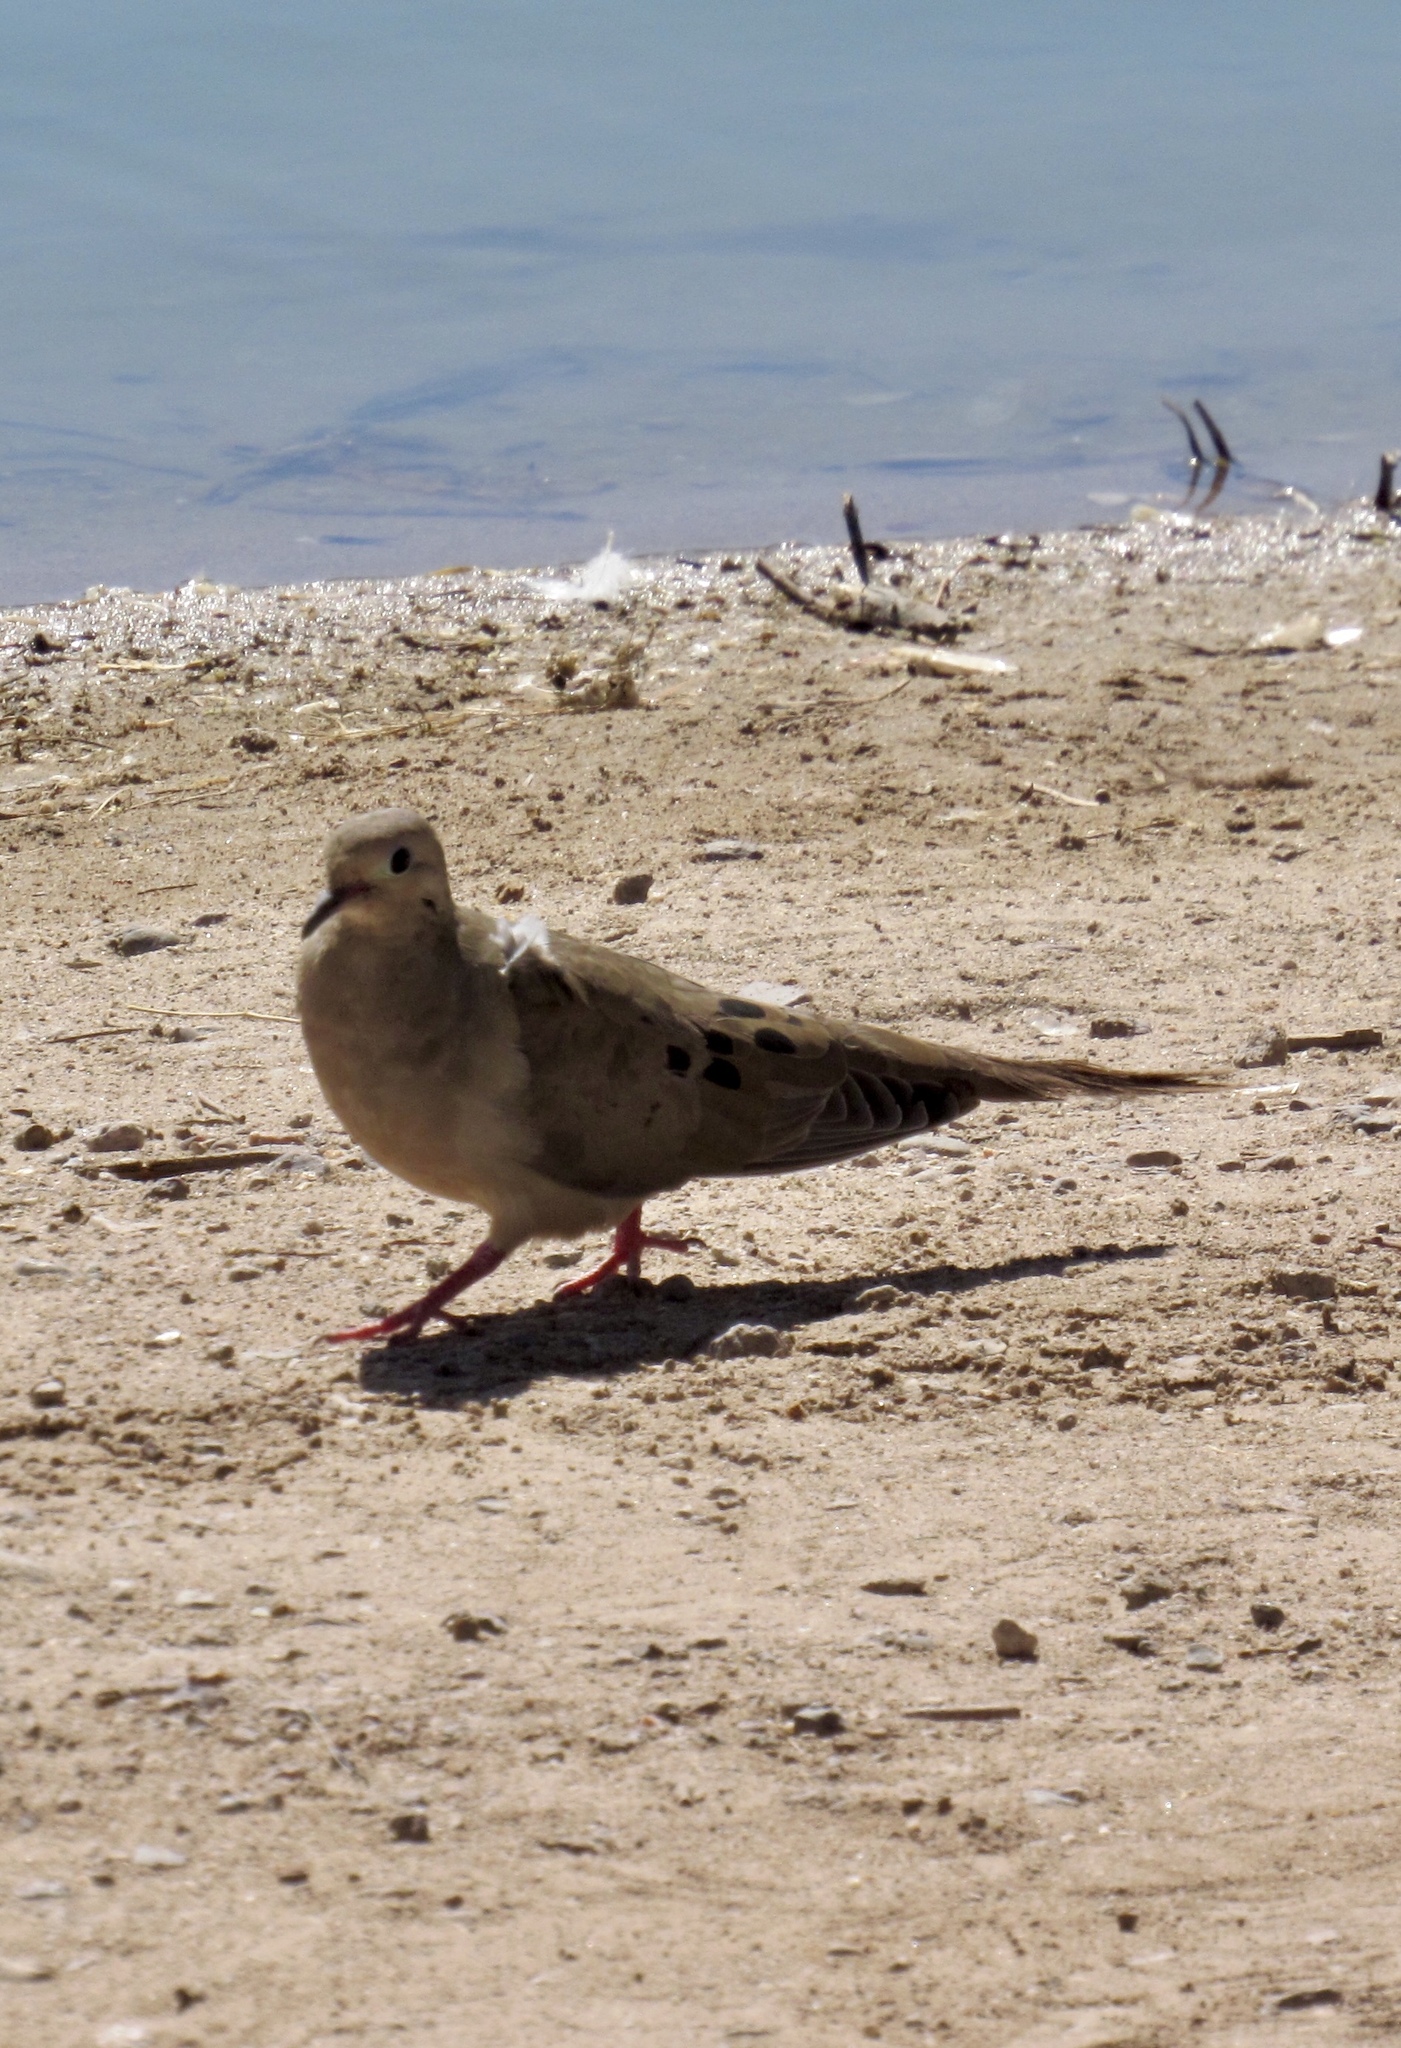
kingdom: Animalia
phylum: Chordata
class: Aves
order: Columbiformes
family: Columbidae
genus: Zenaida
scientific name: Zenaida macroura
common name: Mourning dove
